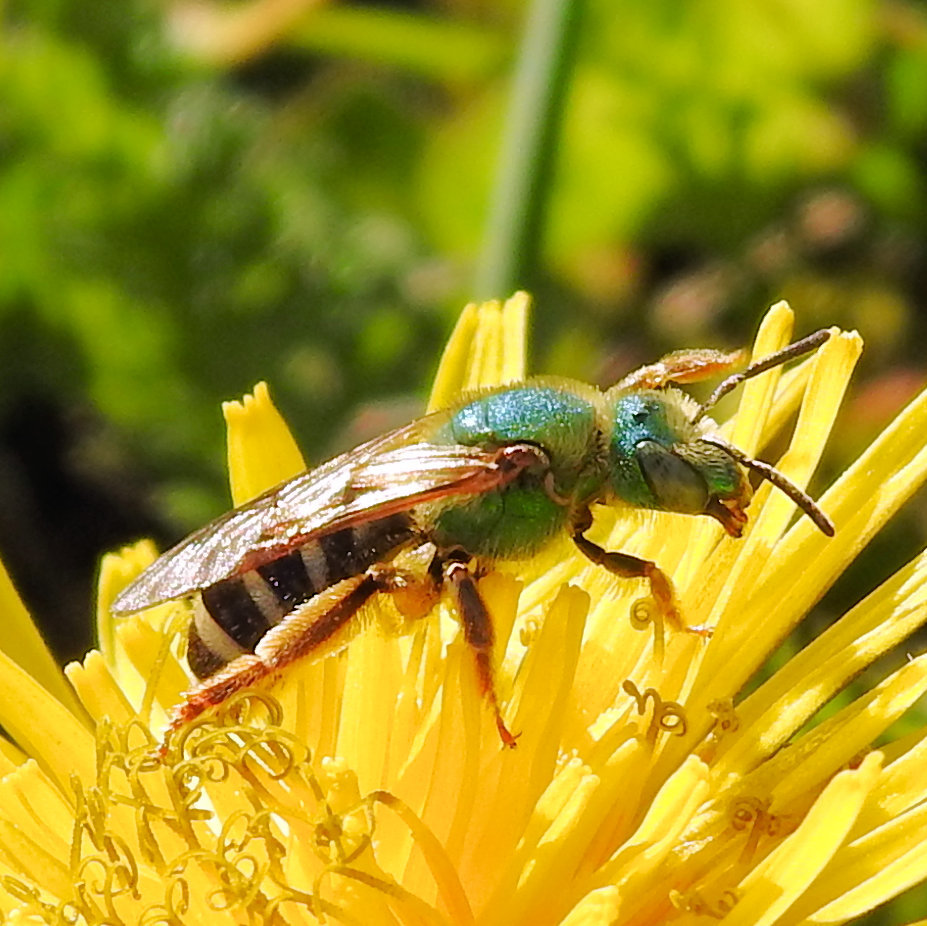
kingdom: Animalia
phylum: Arthropoda
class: Insecta
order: Hymenoptera
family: Halictidae
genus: Agapostemon
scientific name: Agapostemon virescens
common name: Bicolored striped sweat bee
